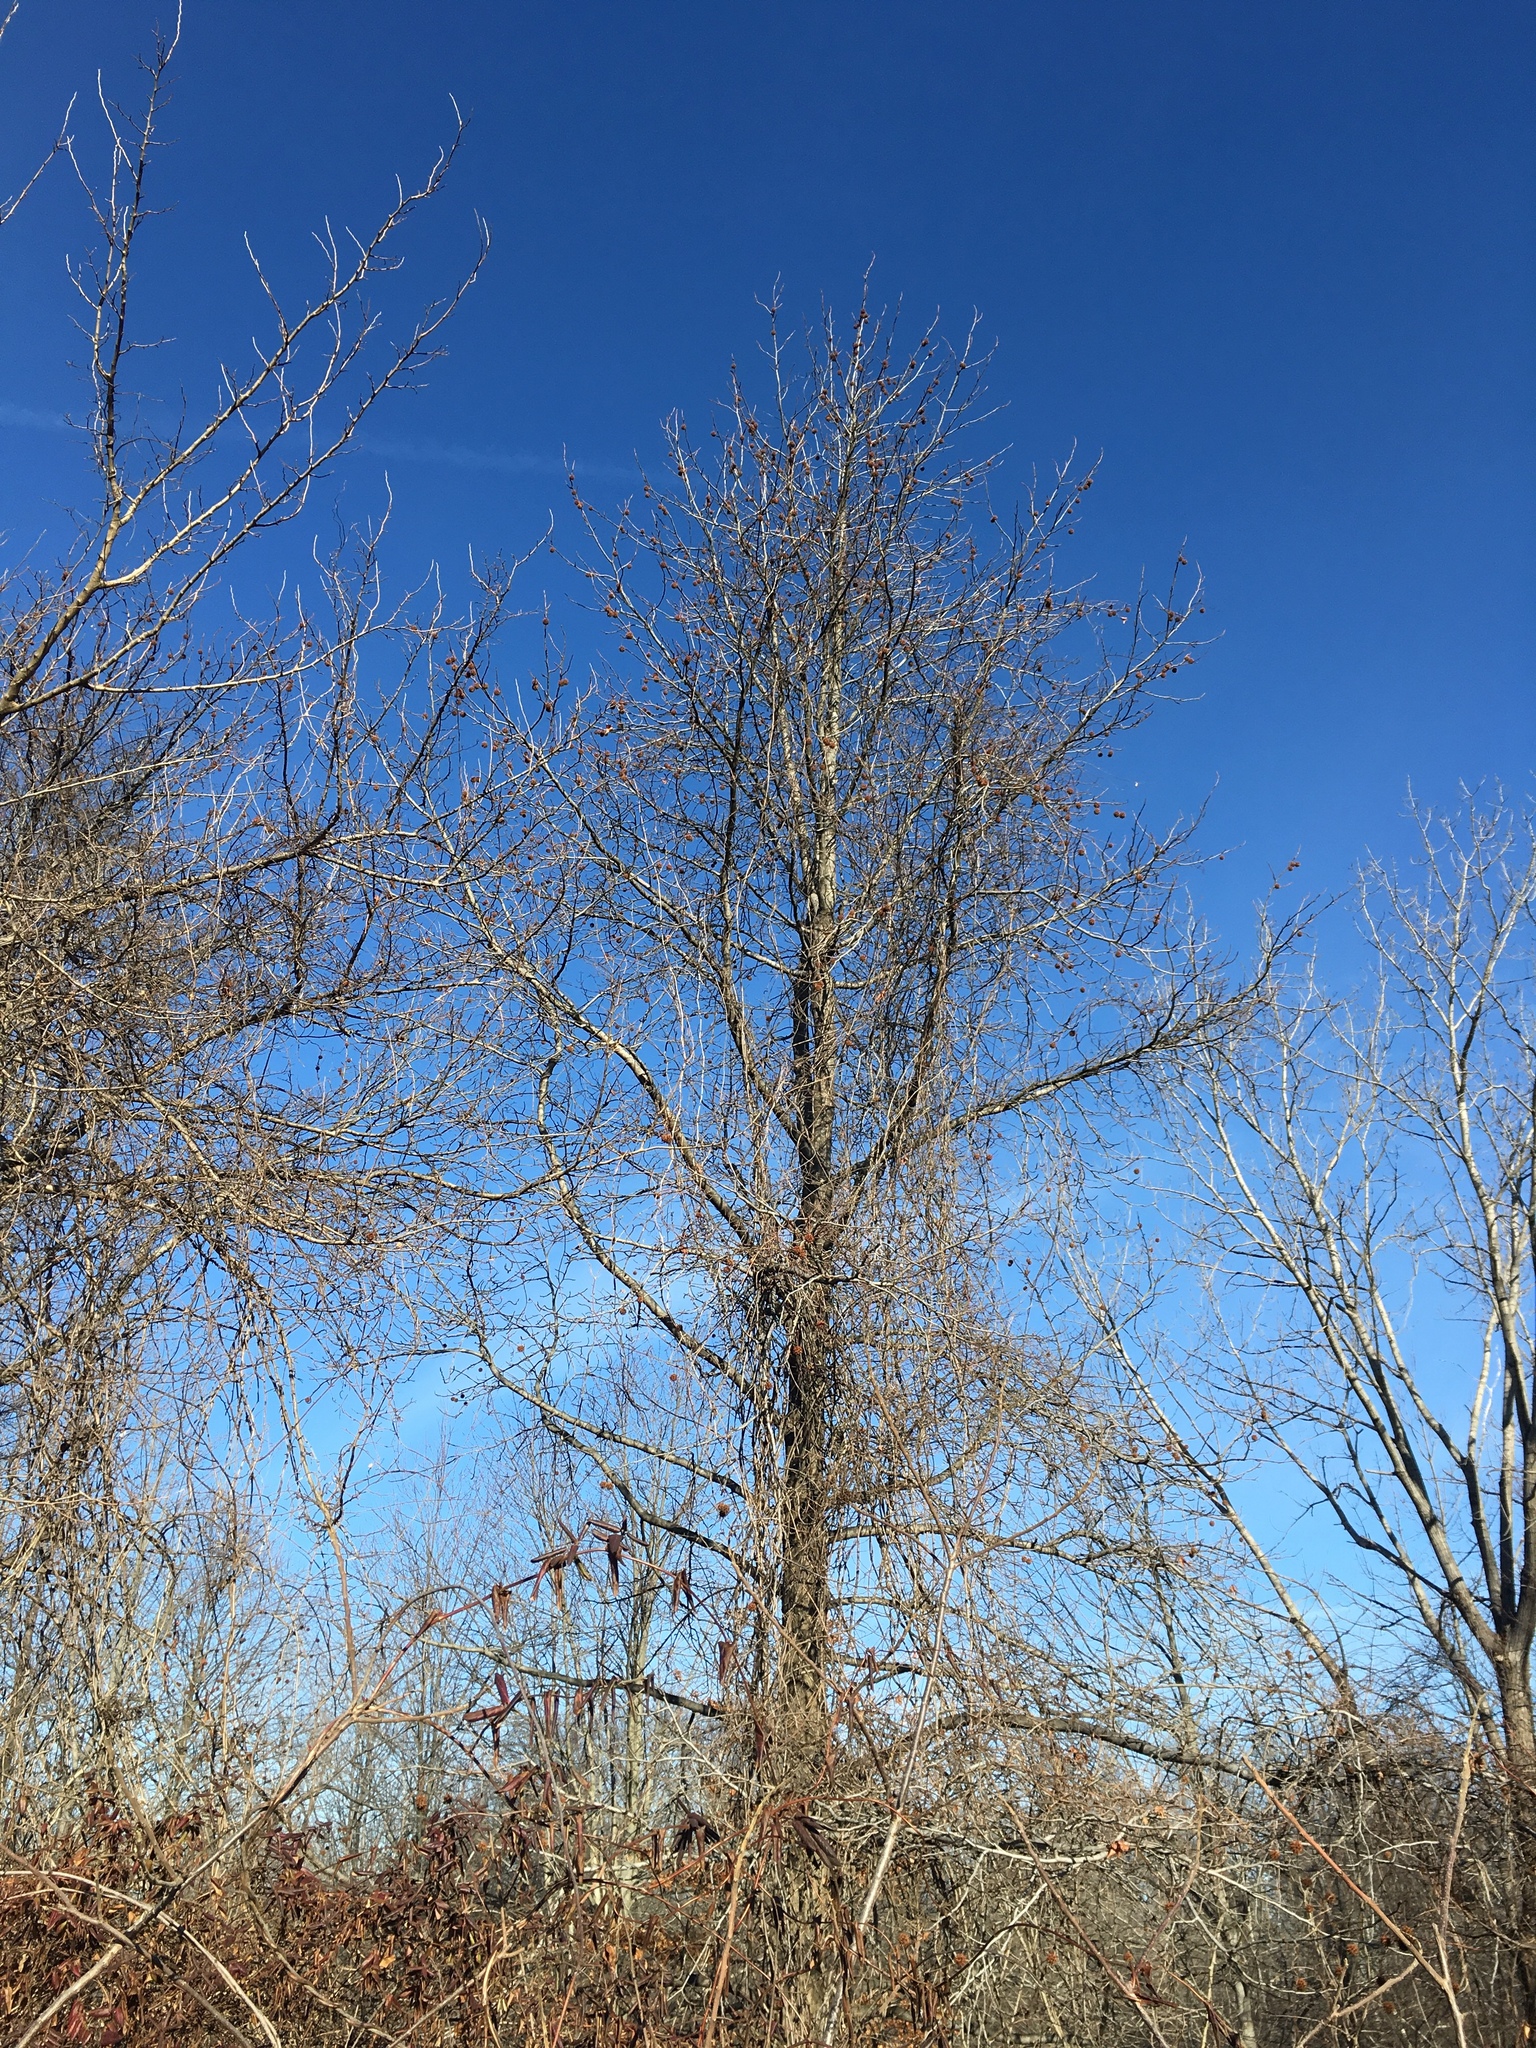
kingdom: Plantae
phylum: Tracheophyta
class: Magnoliopsida
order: Saxifragales
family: Altingiaceae
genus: Liquidambar
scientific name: Liquidambar styraciflua
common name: Sweet gum
